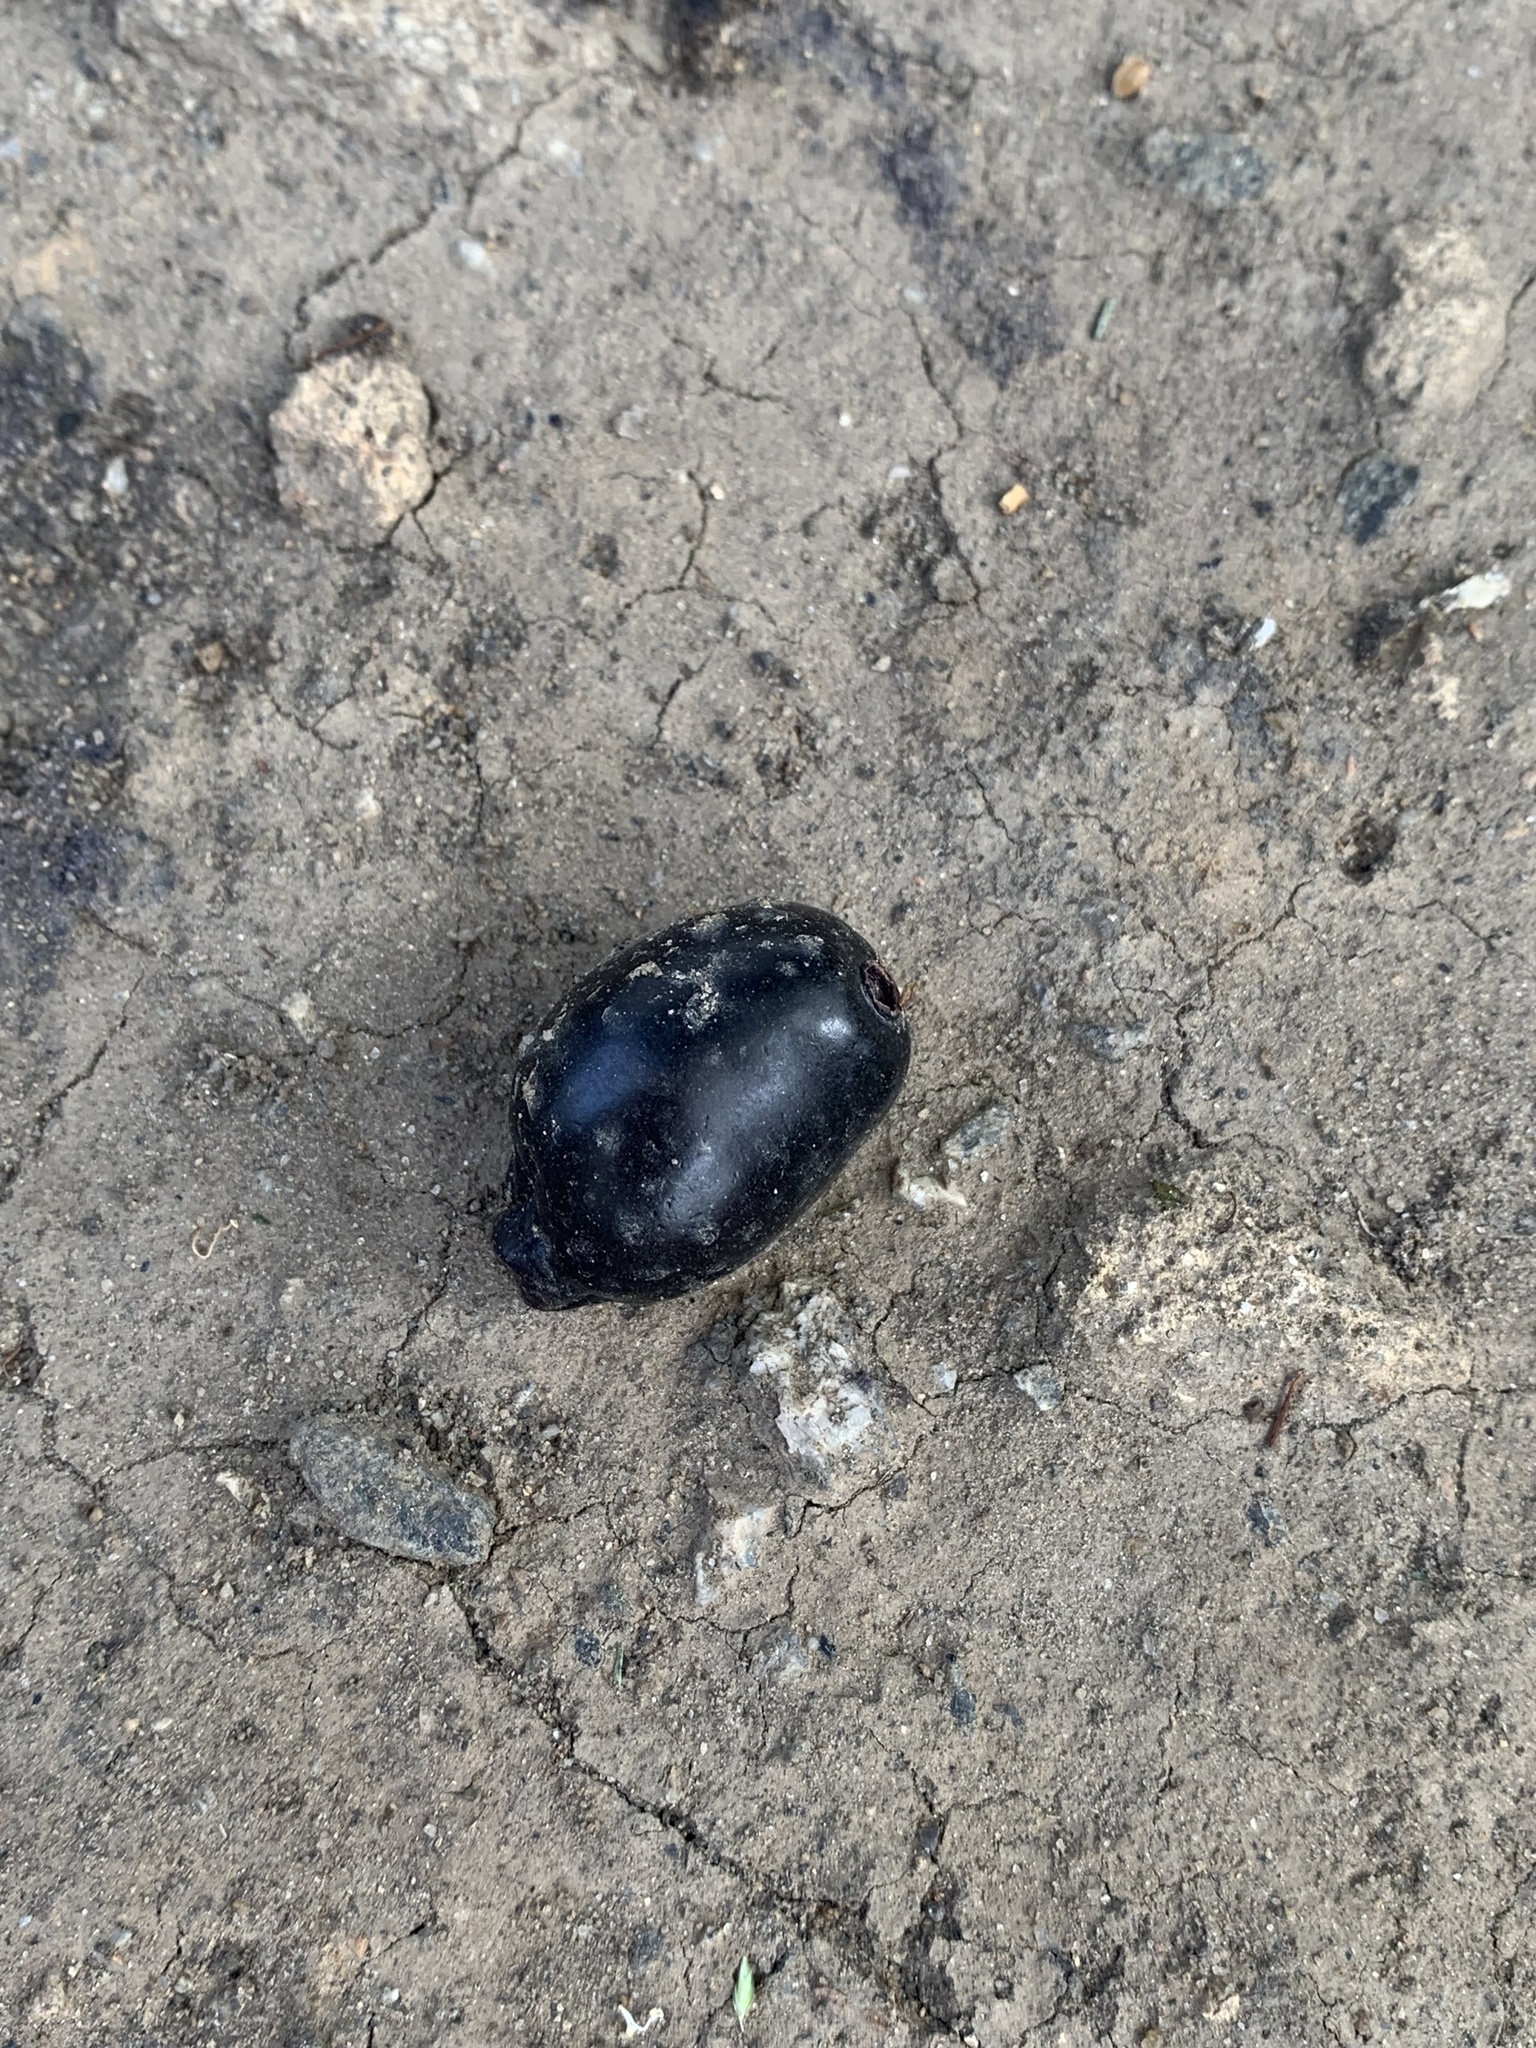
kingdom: Plantae
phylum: Tracheophyta
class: Magnoliopsida
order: Myrtales
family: Myrtaceae
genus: Syzygium
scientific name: Syzygium cumini
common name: Java plum
